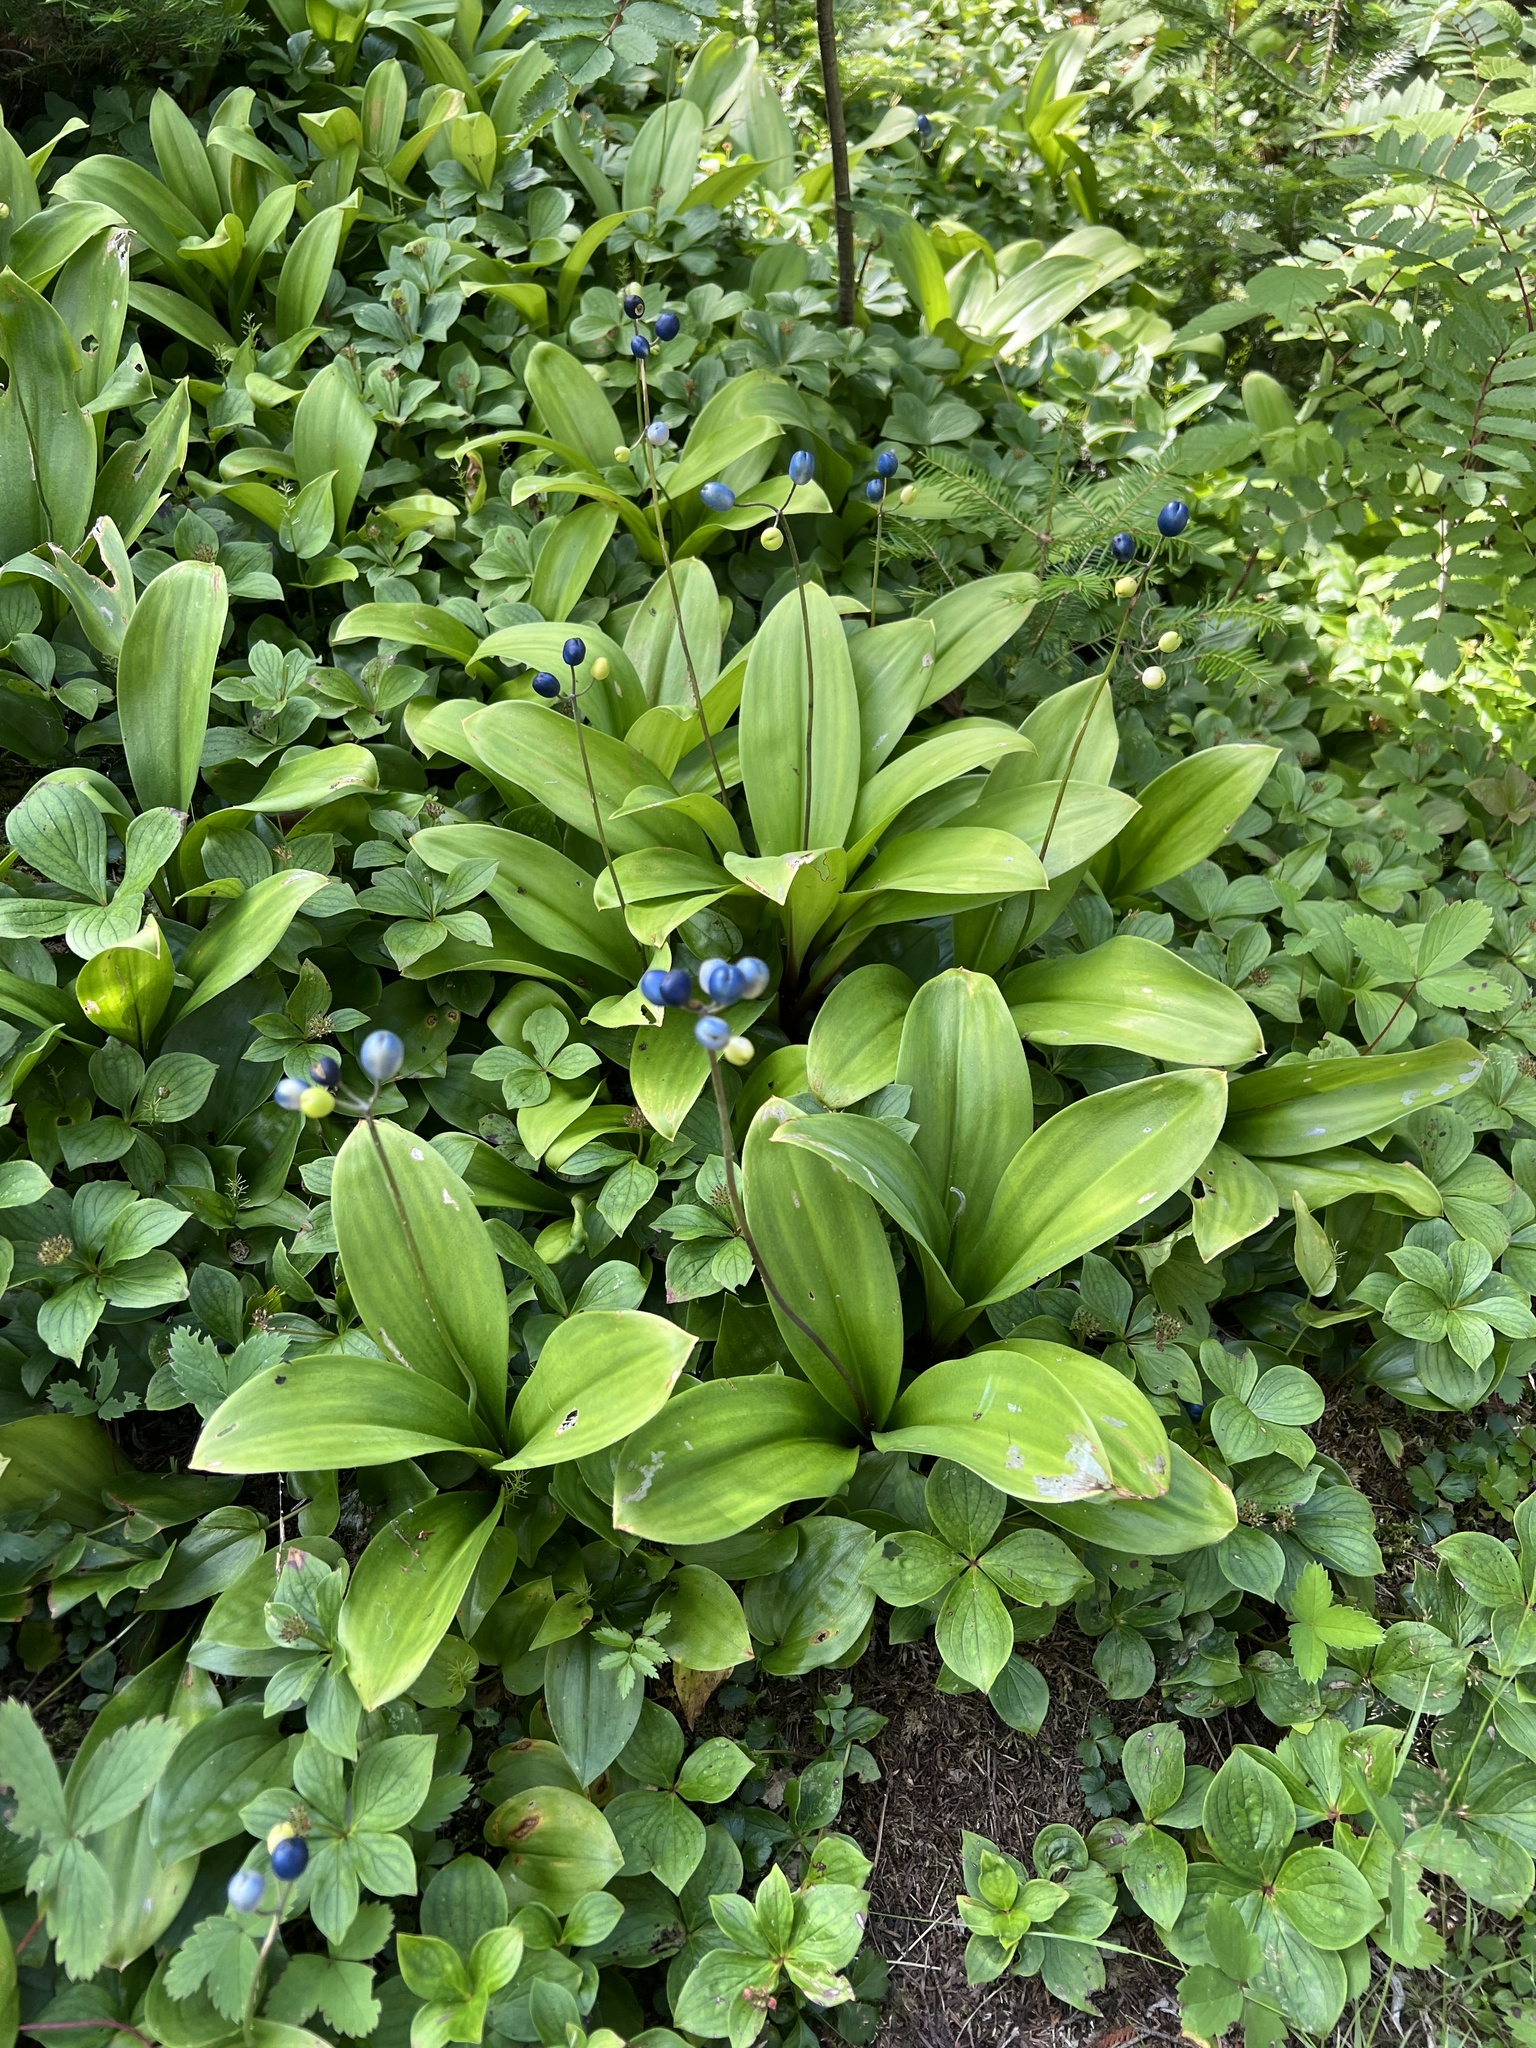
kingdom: Plantae
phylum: Tracheophyta
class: Liliopsida
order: Liliales
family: Liliaceae
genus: Clintonia
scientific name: Clintonia borealis
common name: Yellow clintonia
